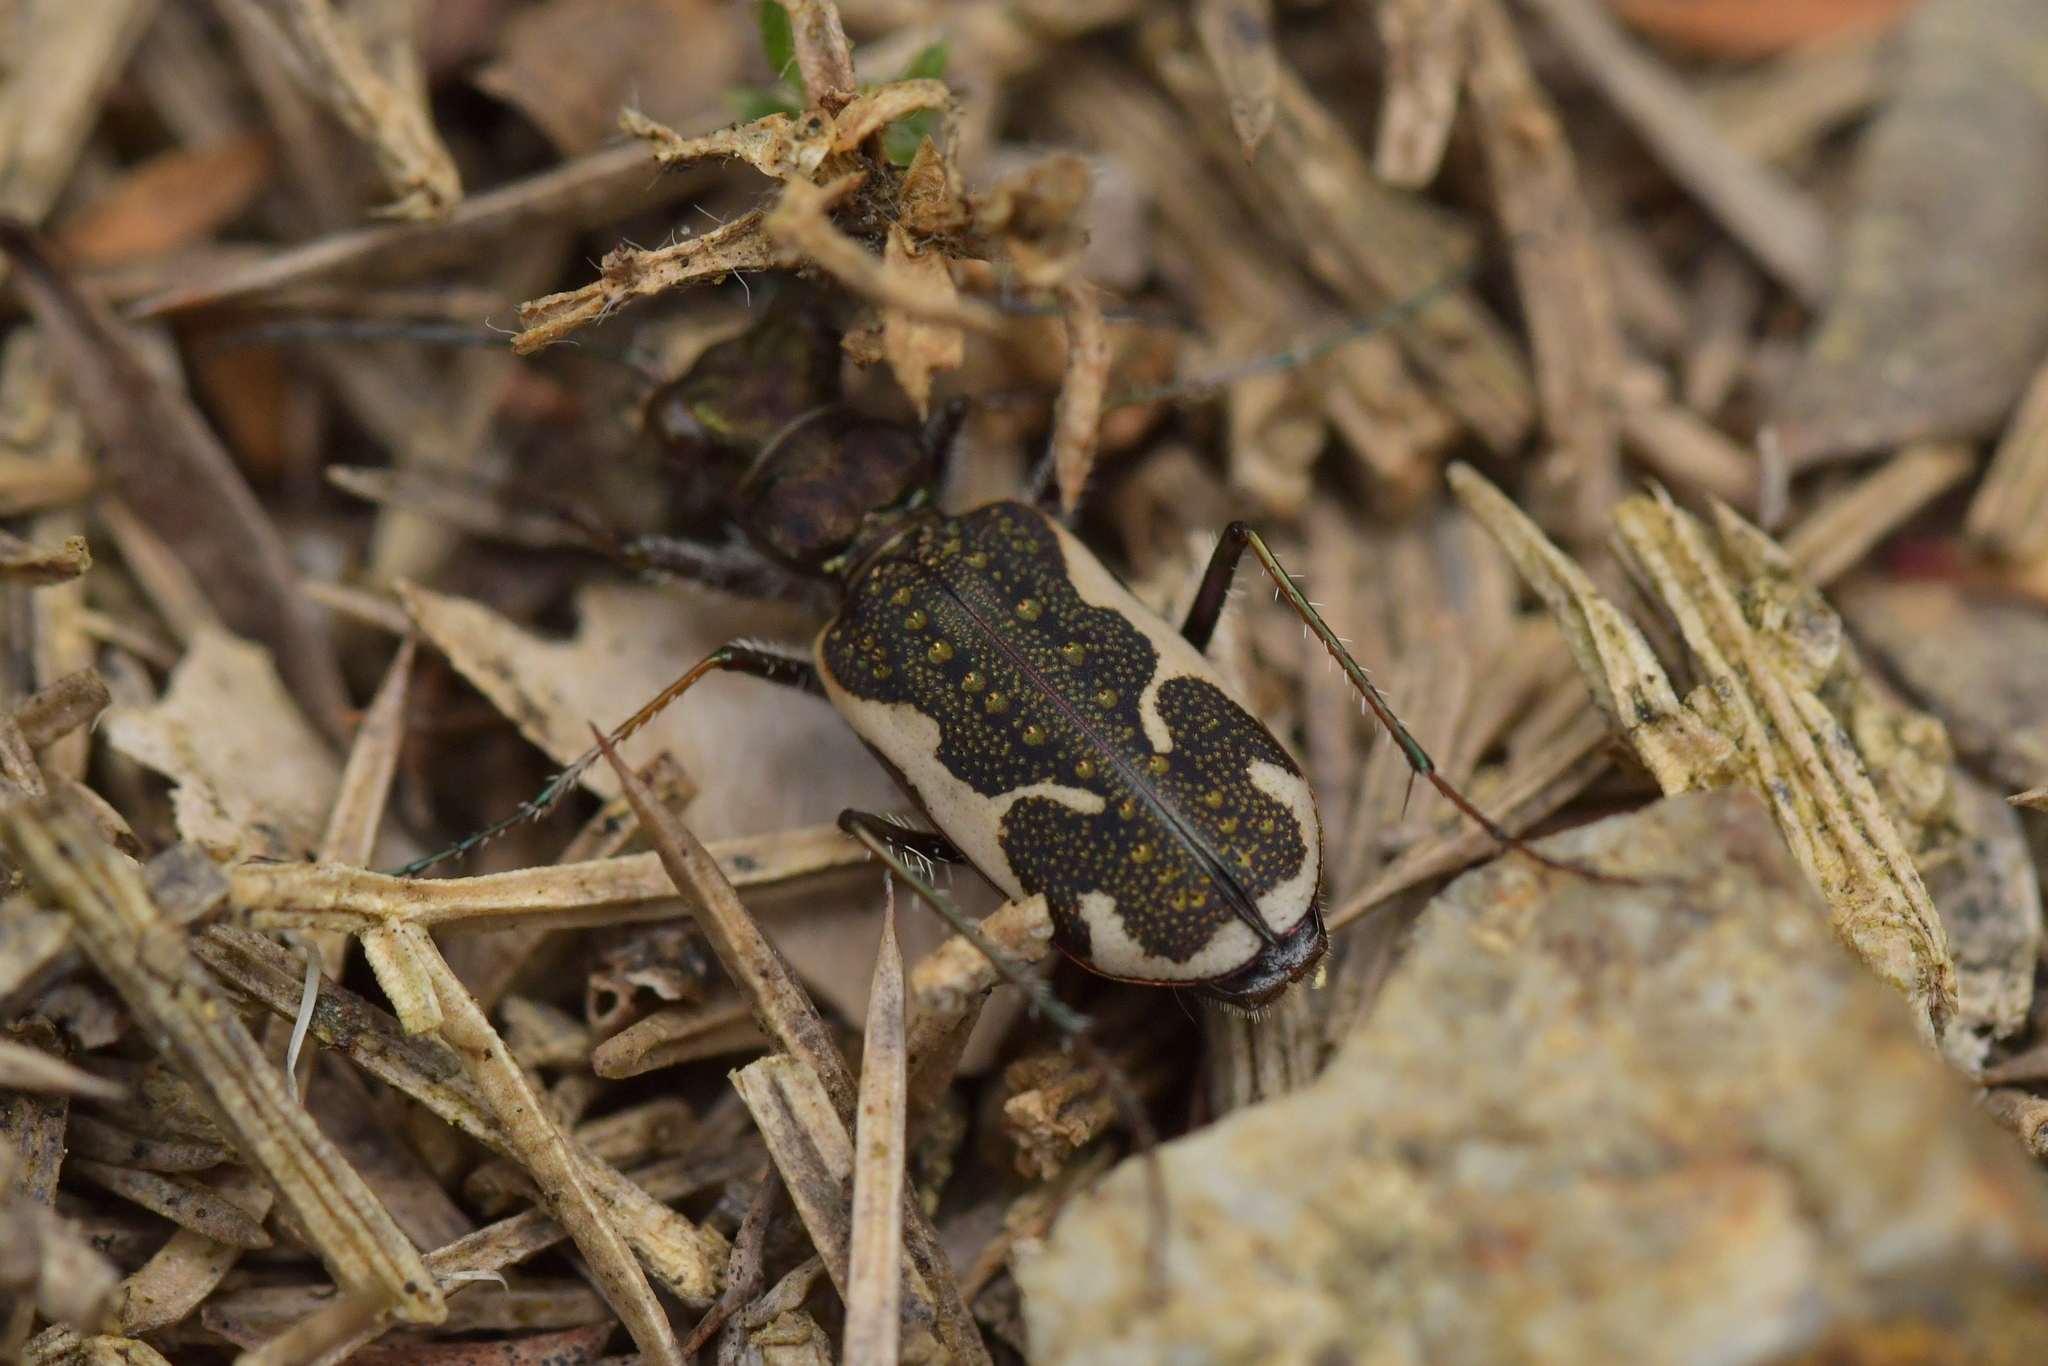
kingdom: Animalia
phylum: Arthropoda
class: Insecta
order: Coleoptera
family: Carabidae
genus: Neocicindela
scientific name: Neocicindela tuberculata
